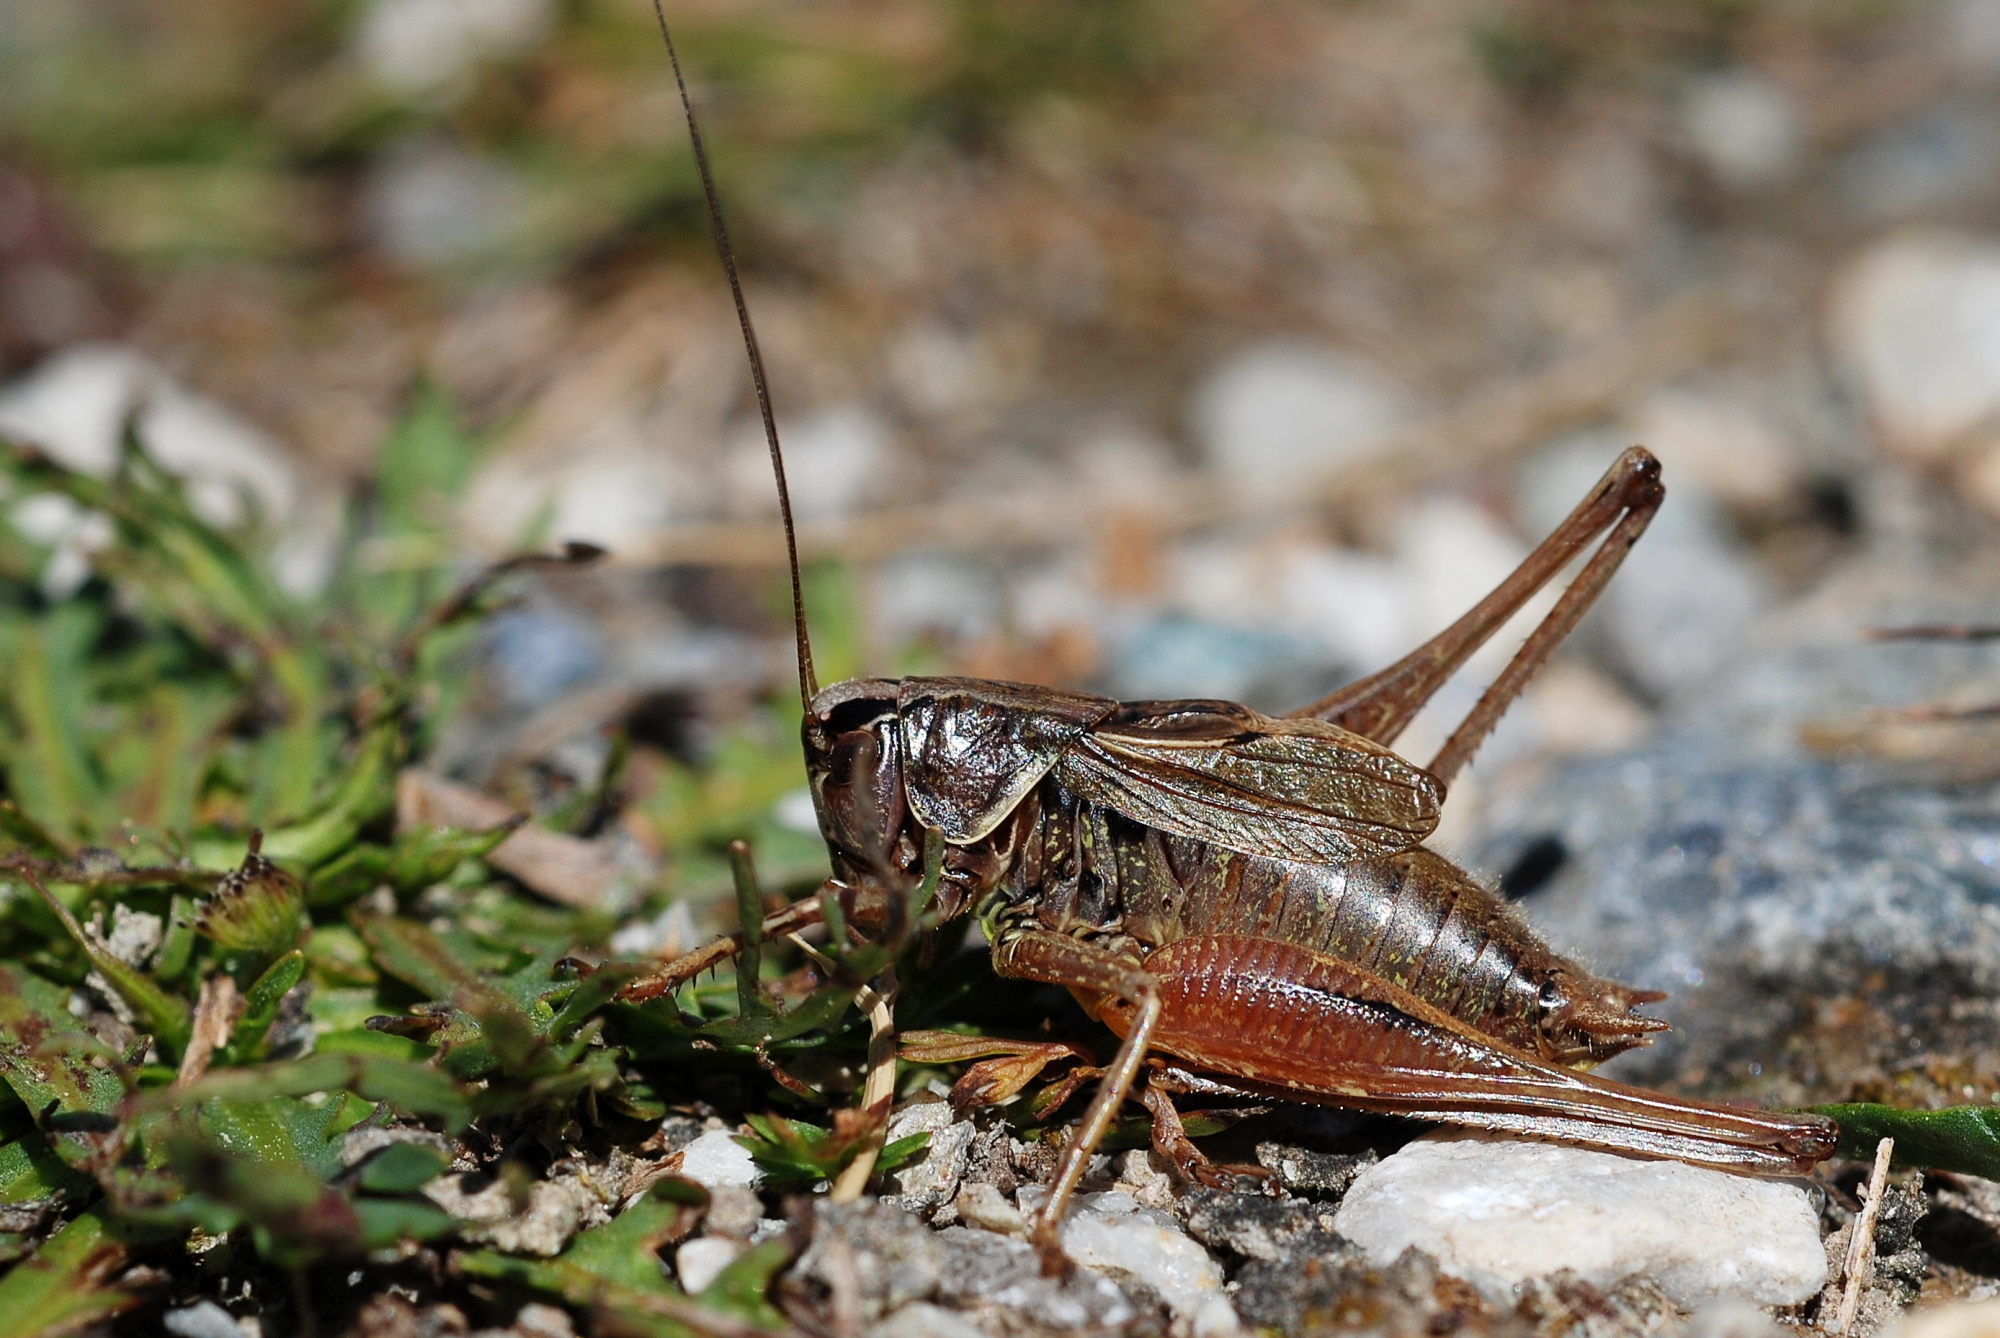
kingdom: Animalia
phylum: Arthropoda
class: Insecta
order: Orthoptera
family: Tettigoniidae
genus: Metrioptera
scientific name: Metrioptera saussuriana
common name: Purple meadow bush-cricket
